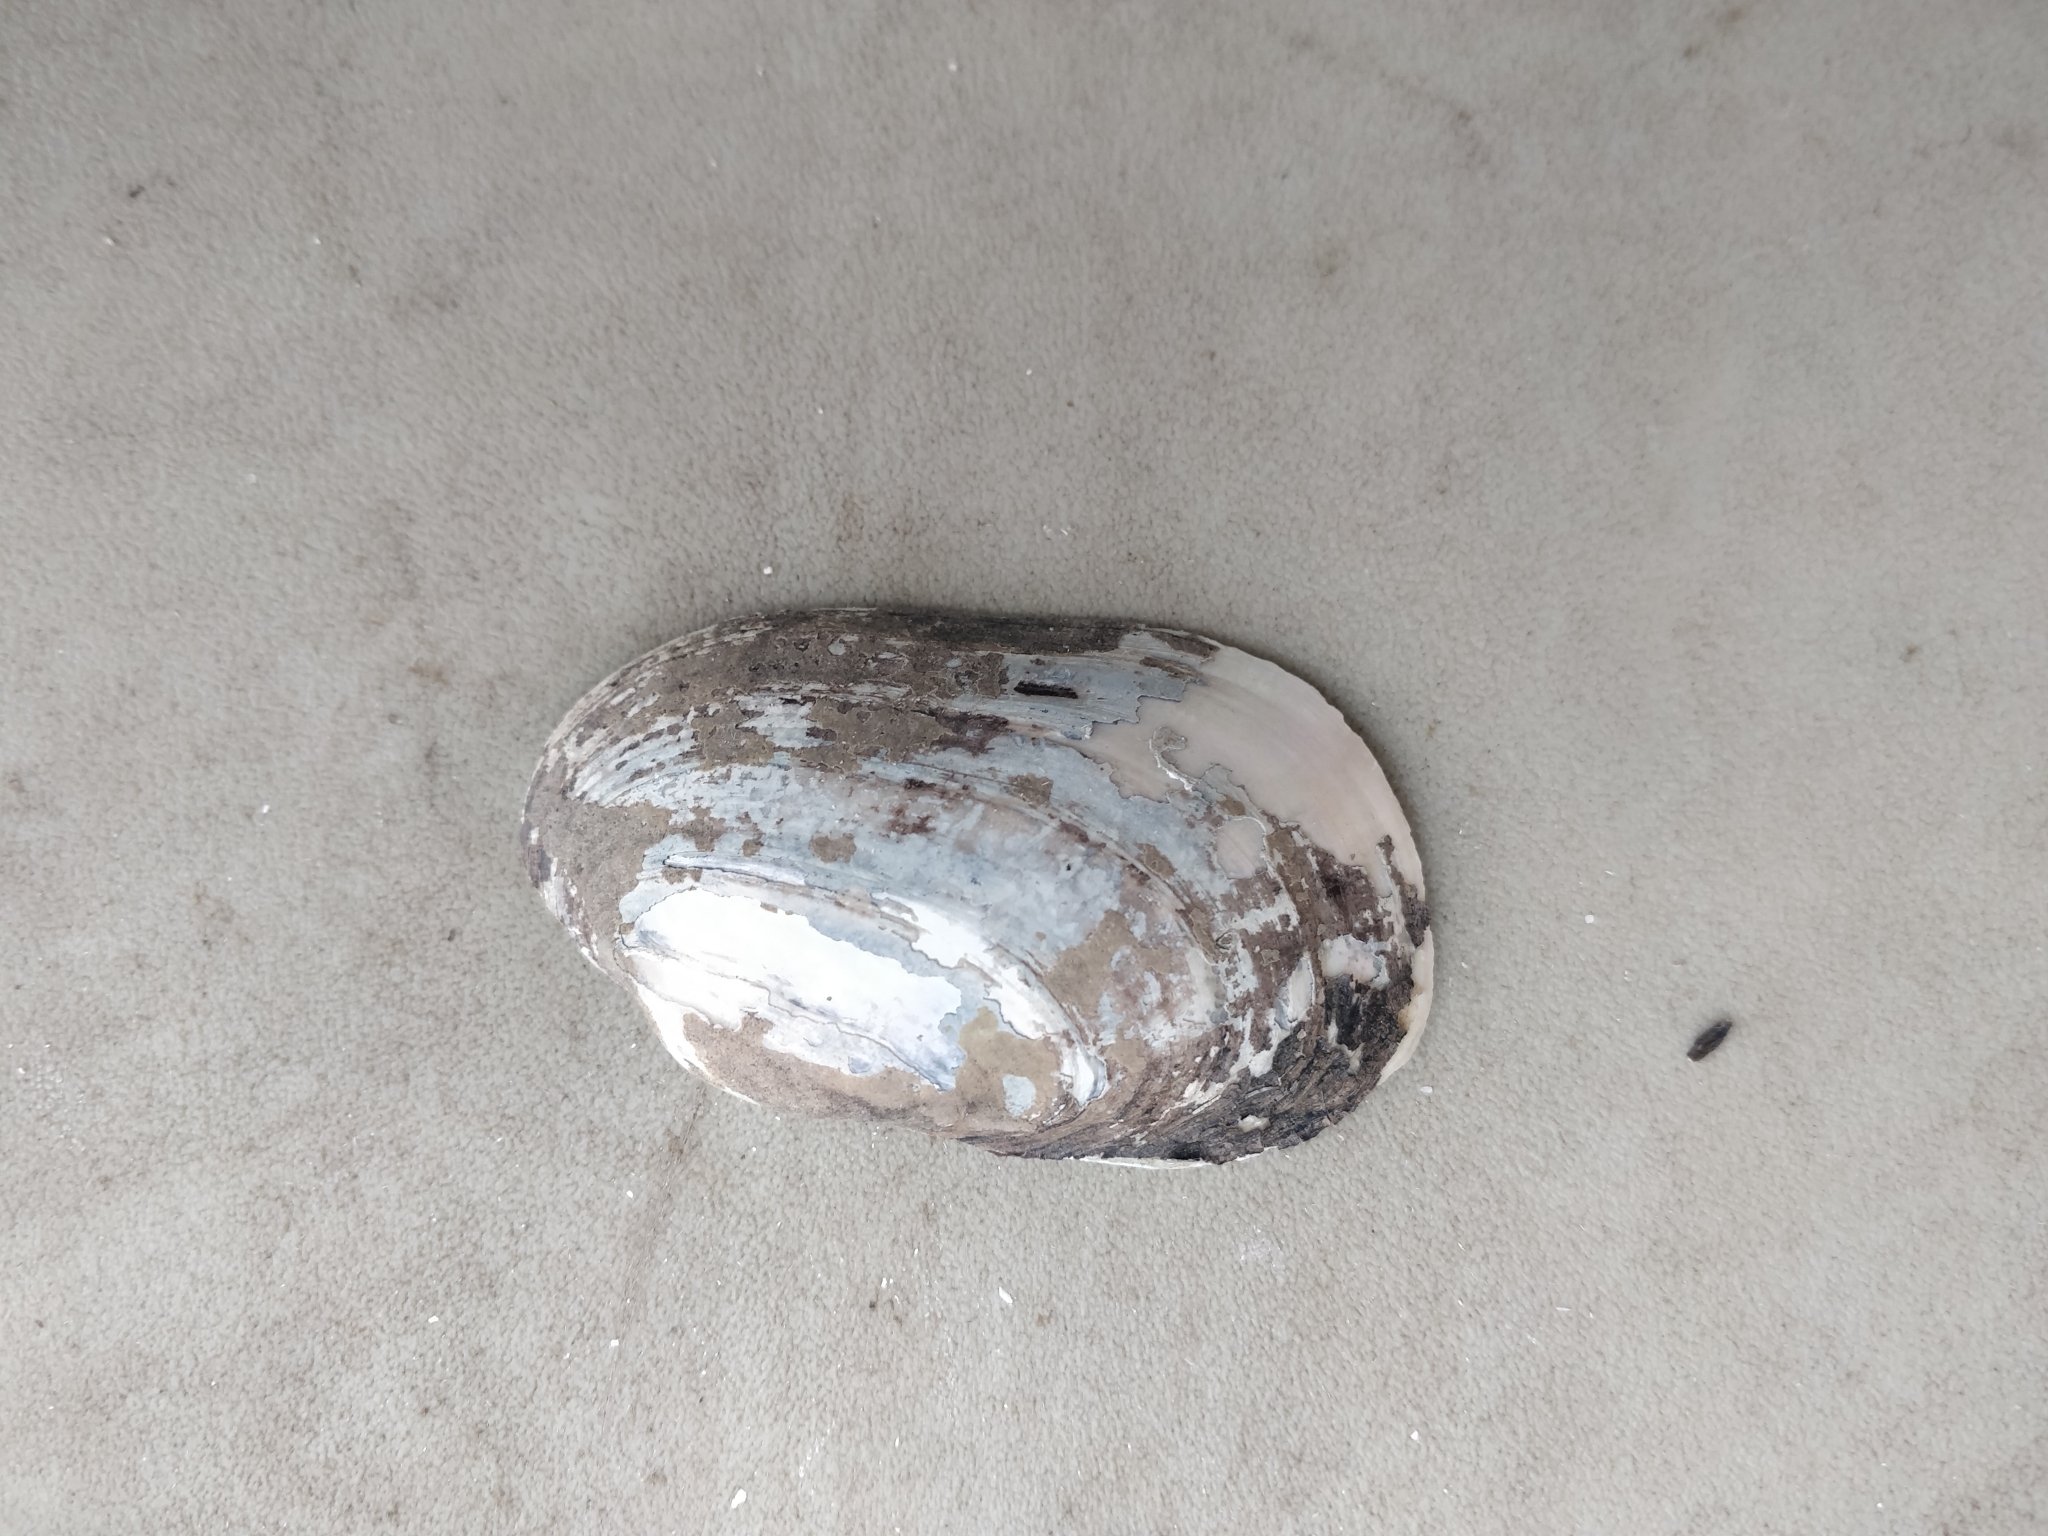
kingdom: Animalia
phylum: Mollusca
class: Bivalvia
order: Unionida
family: Unionidae
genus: Lampsilis
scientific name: Lampsilis siliquoidea
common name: Fatmucket
